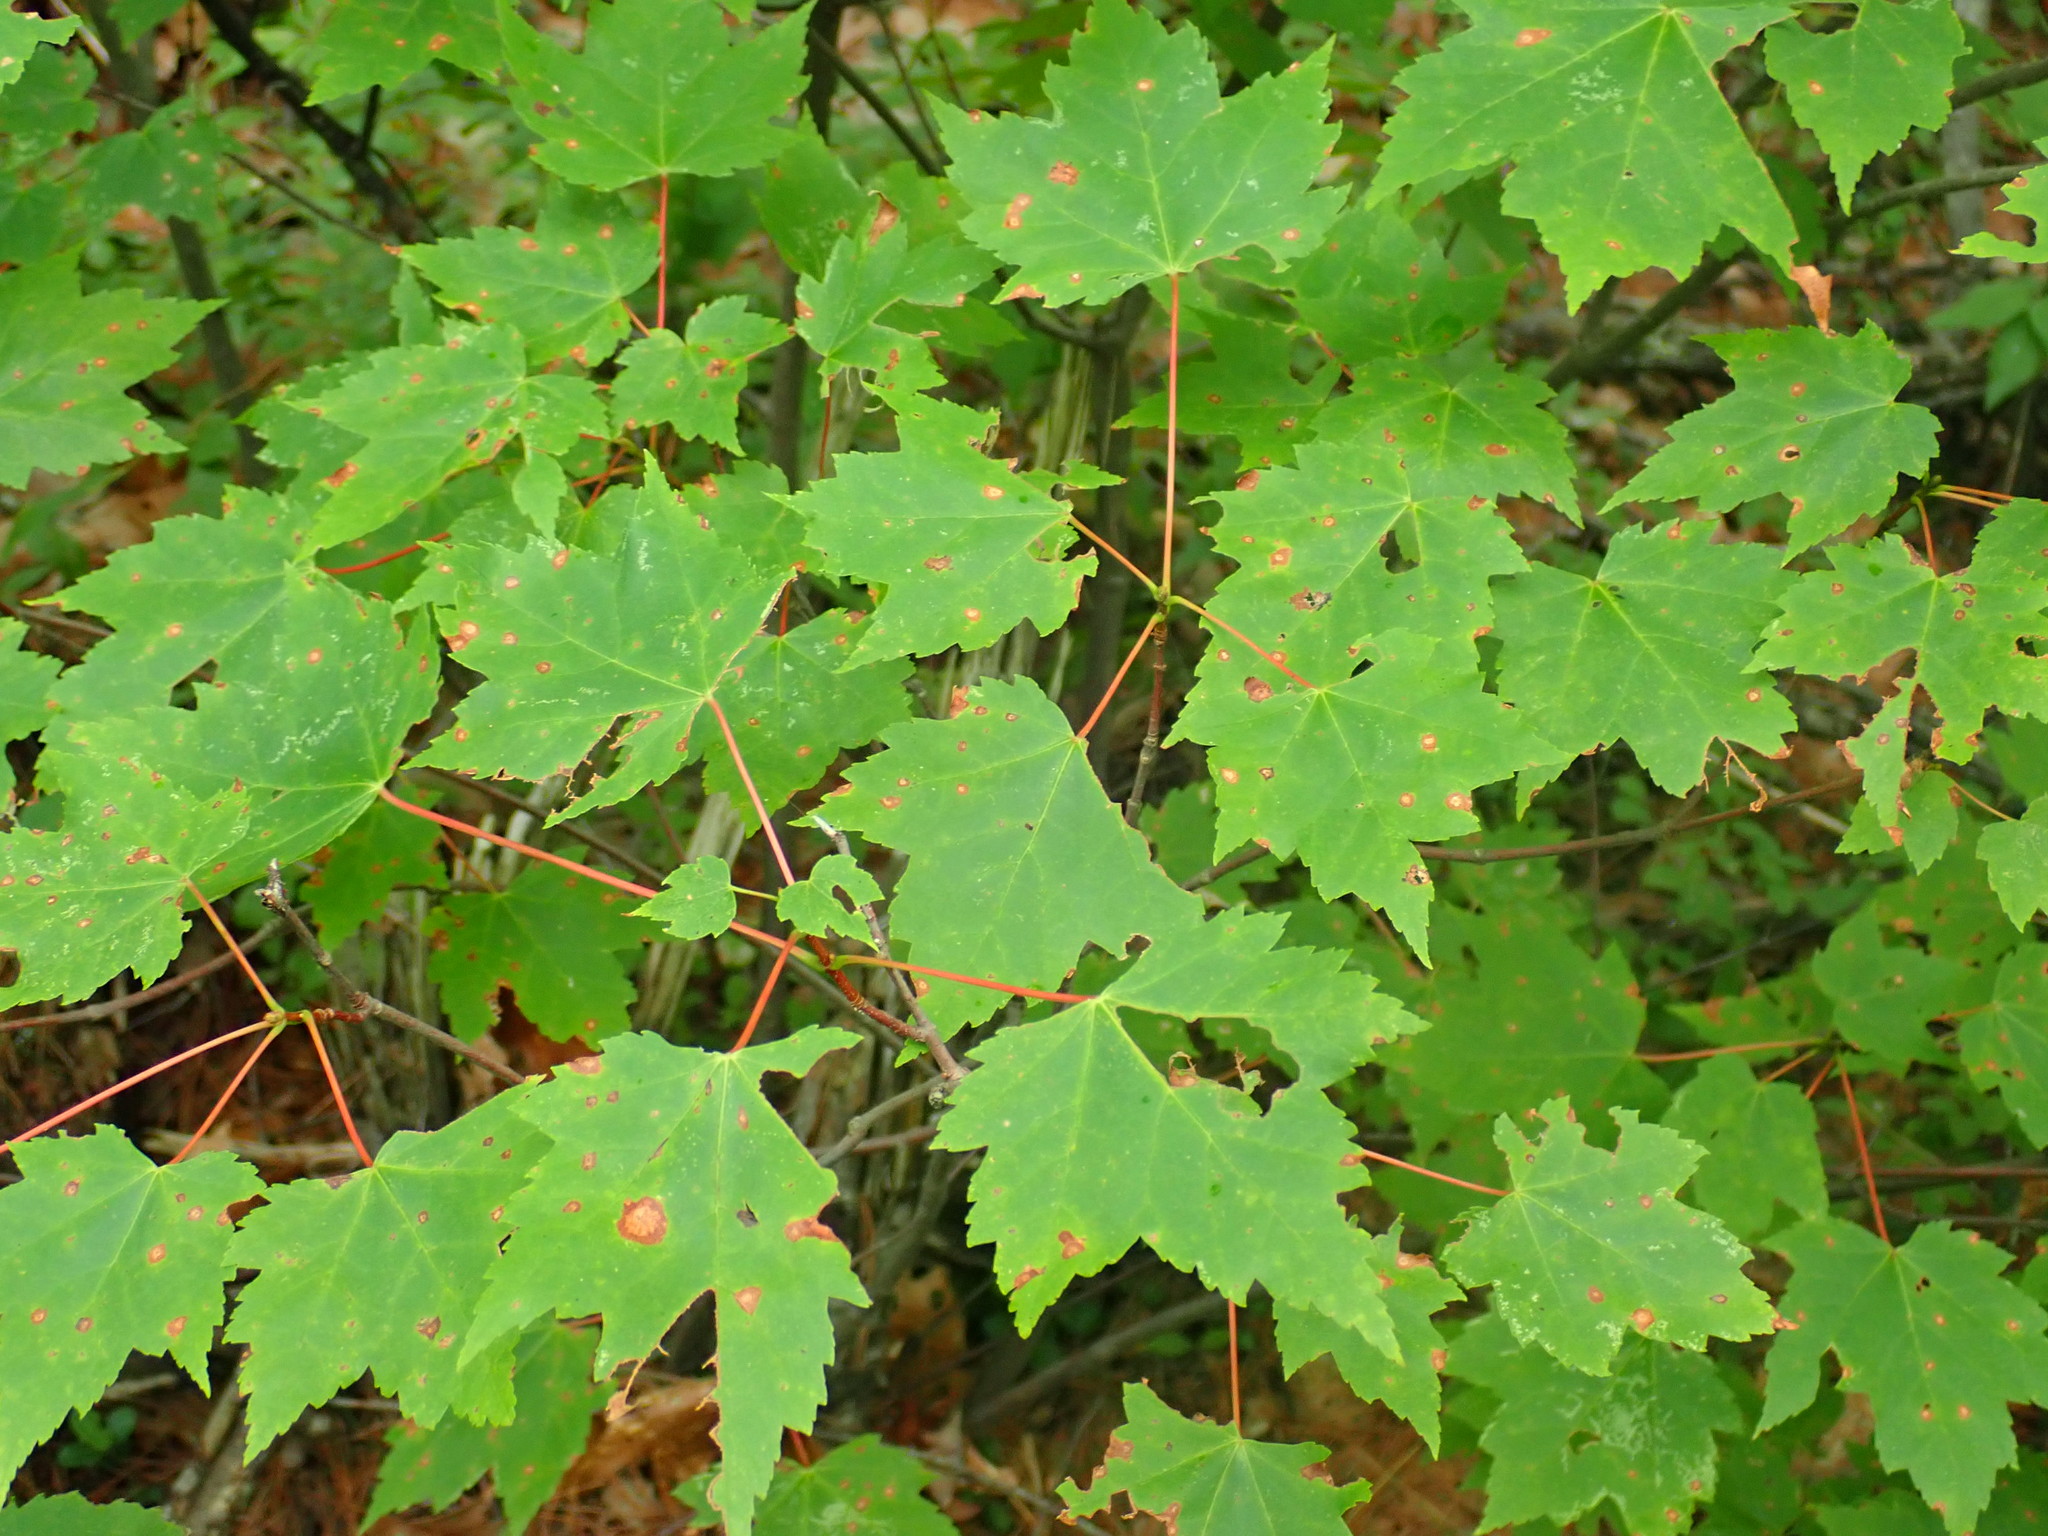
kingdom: Plantae
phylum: Tracheophyta
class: Magnoliopsida
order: Sapindales
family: Sapindaceae
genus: Acer
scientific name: Acer rubrum
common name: Red maple
